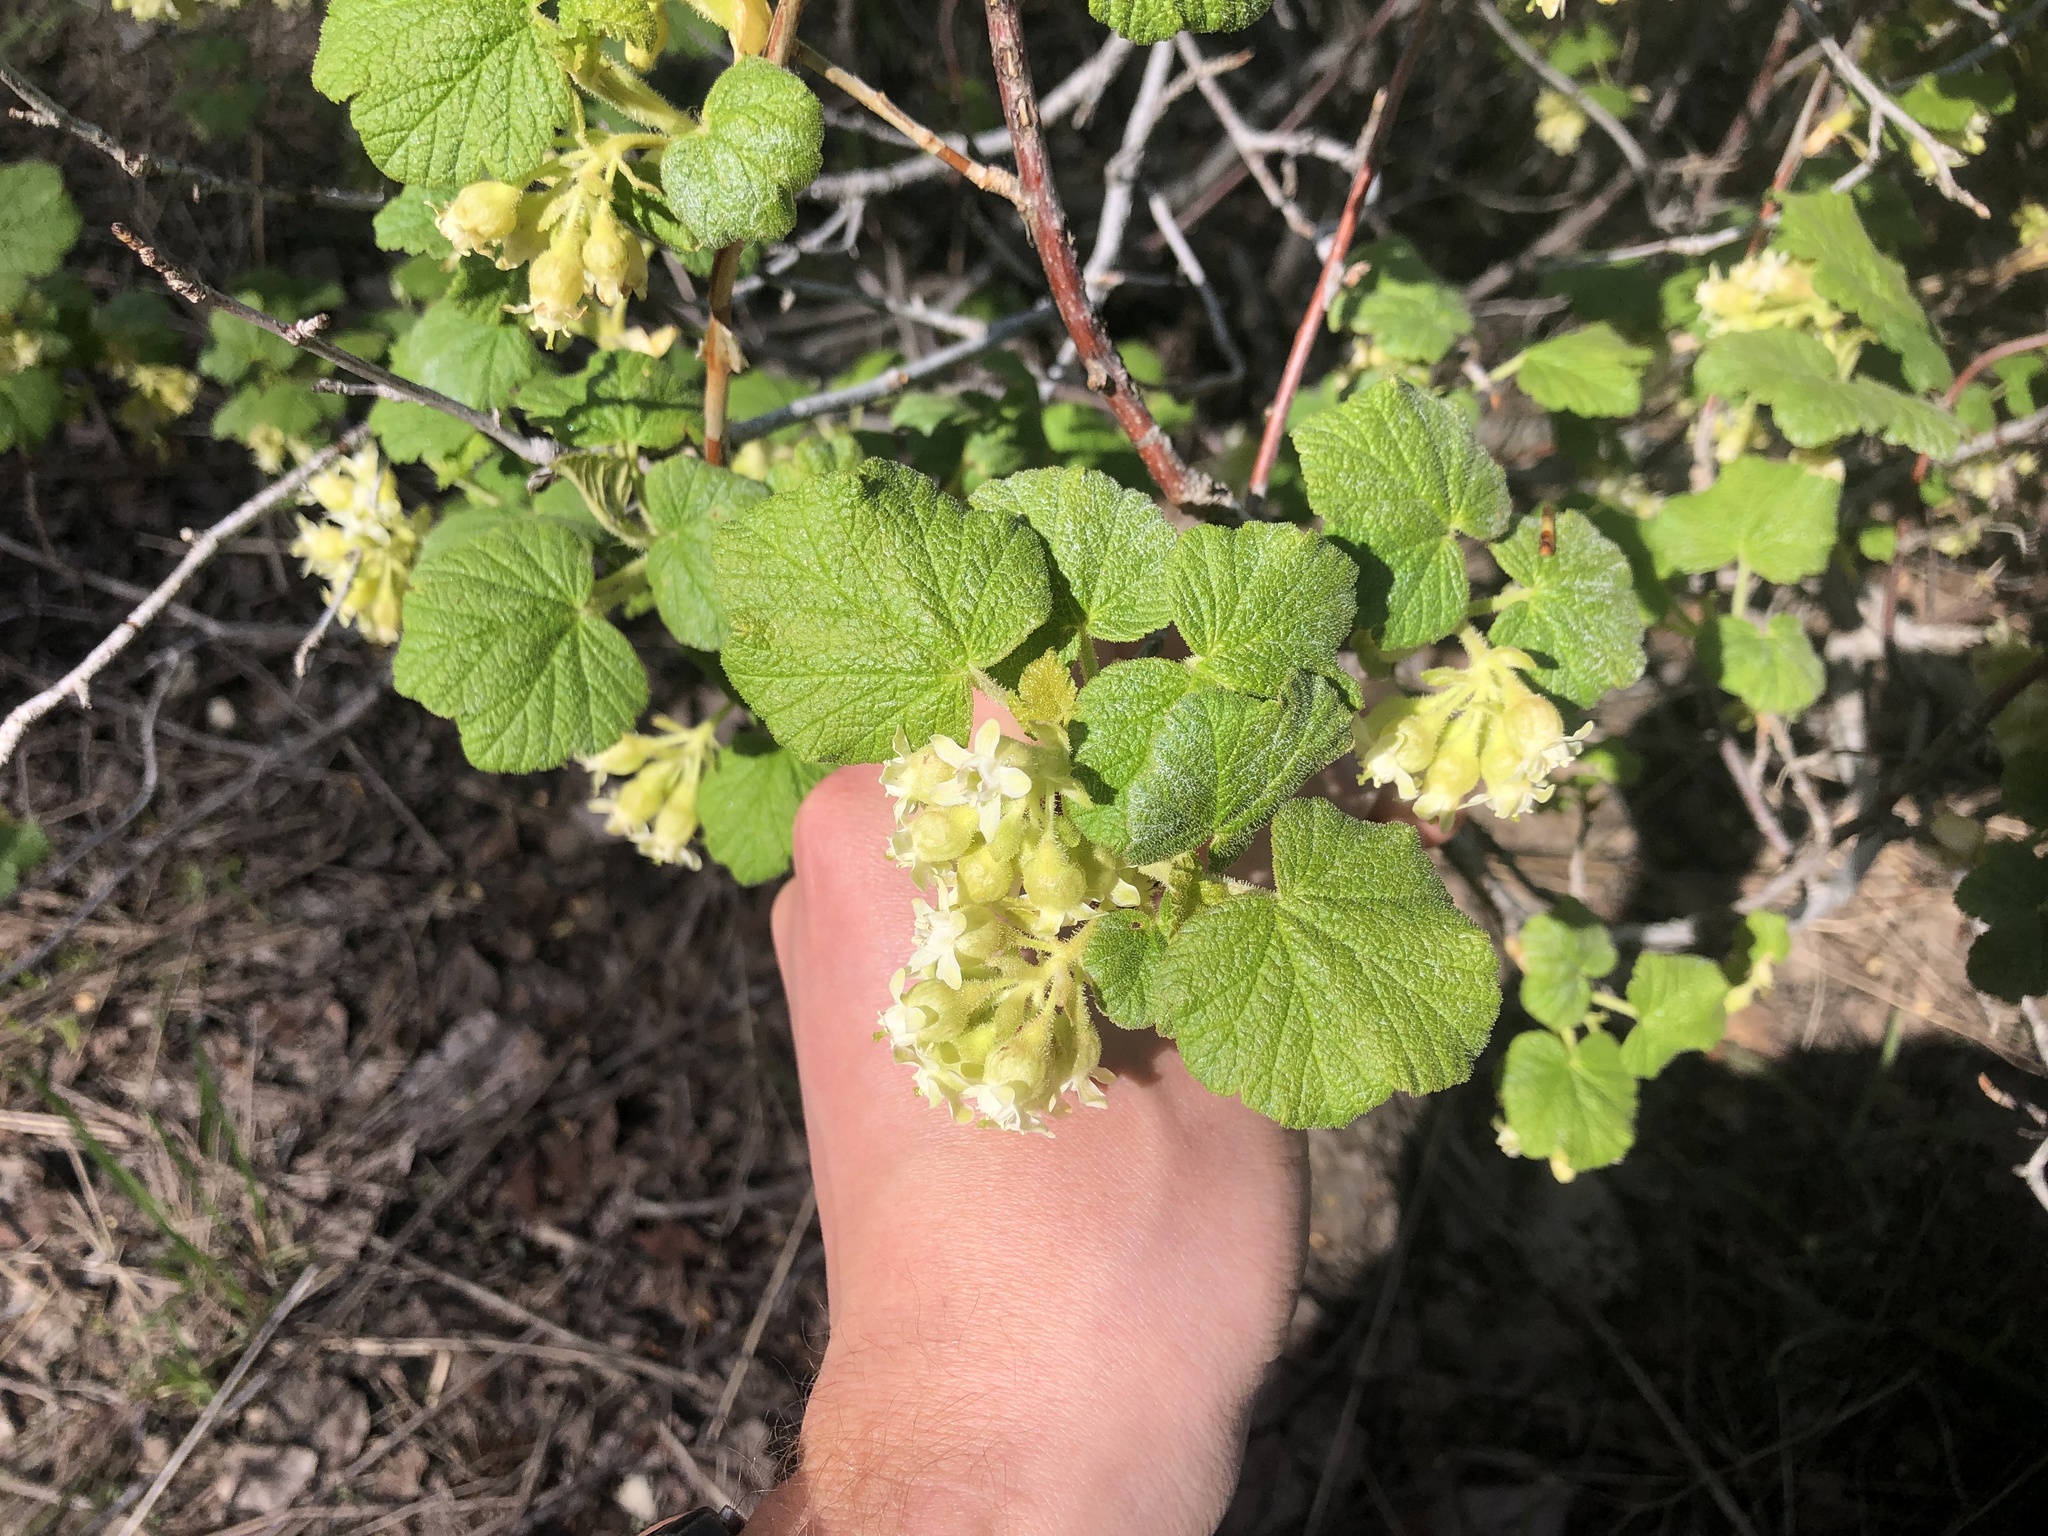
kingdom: Plantae
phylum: Tracheophyta
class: Magnoliopsida
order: Saxifragales
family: Grossulariaceae
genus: Ribes
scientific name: Ribes viscosissimum
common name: Sticky currant
